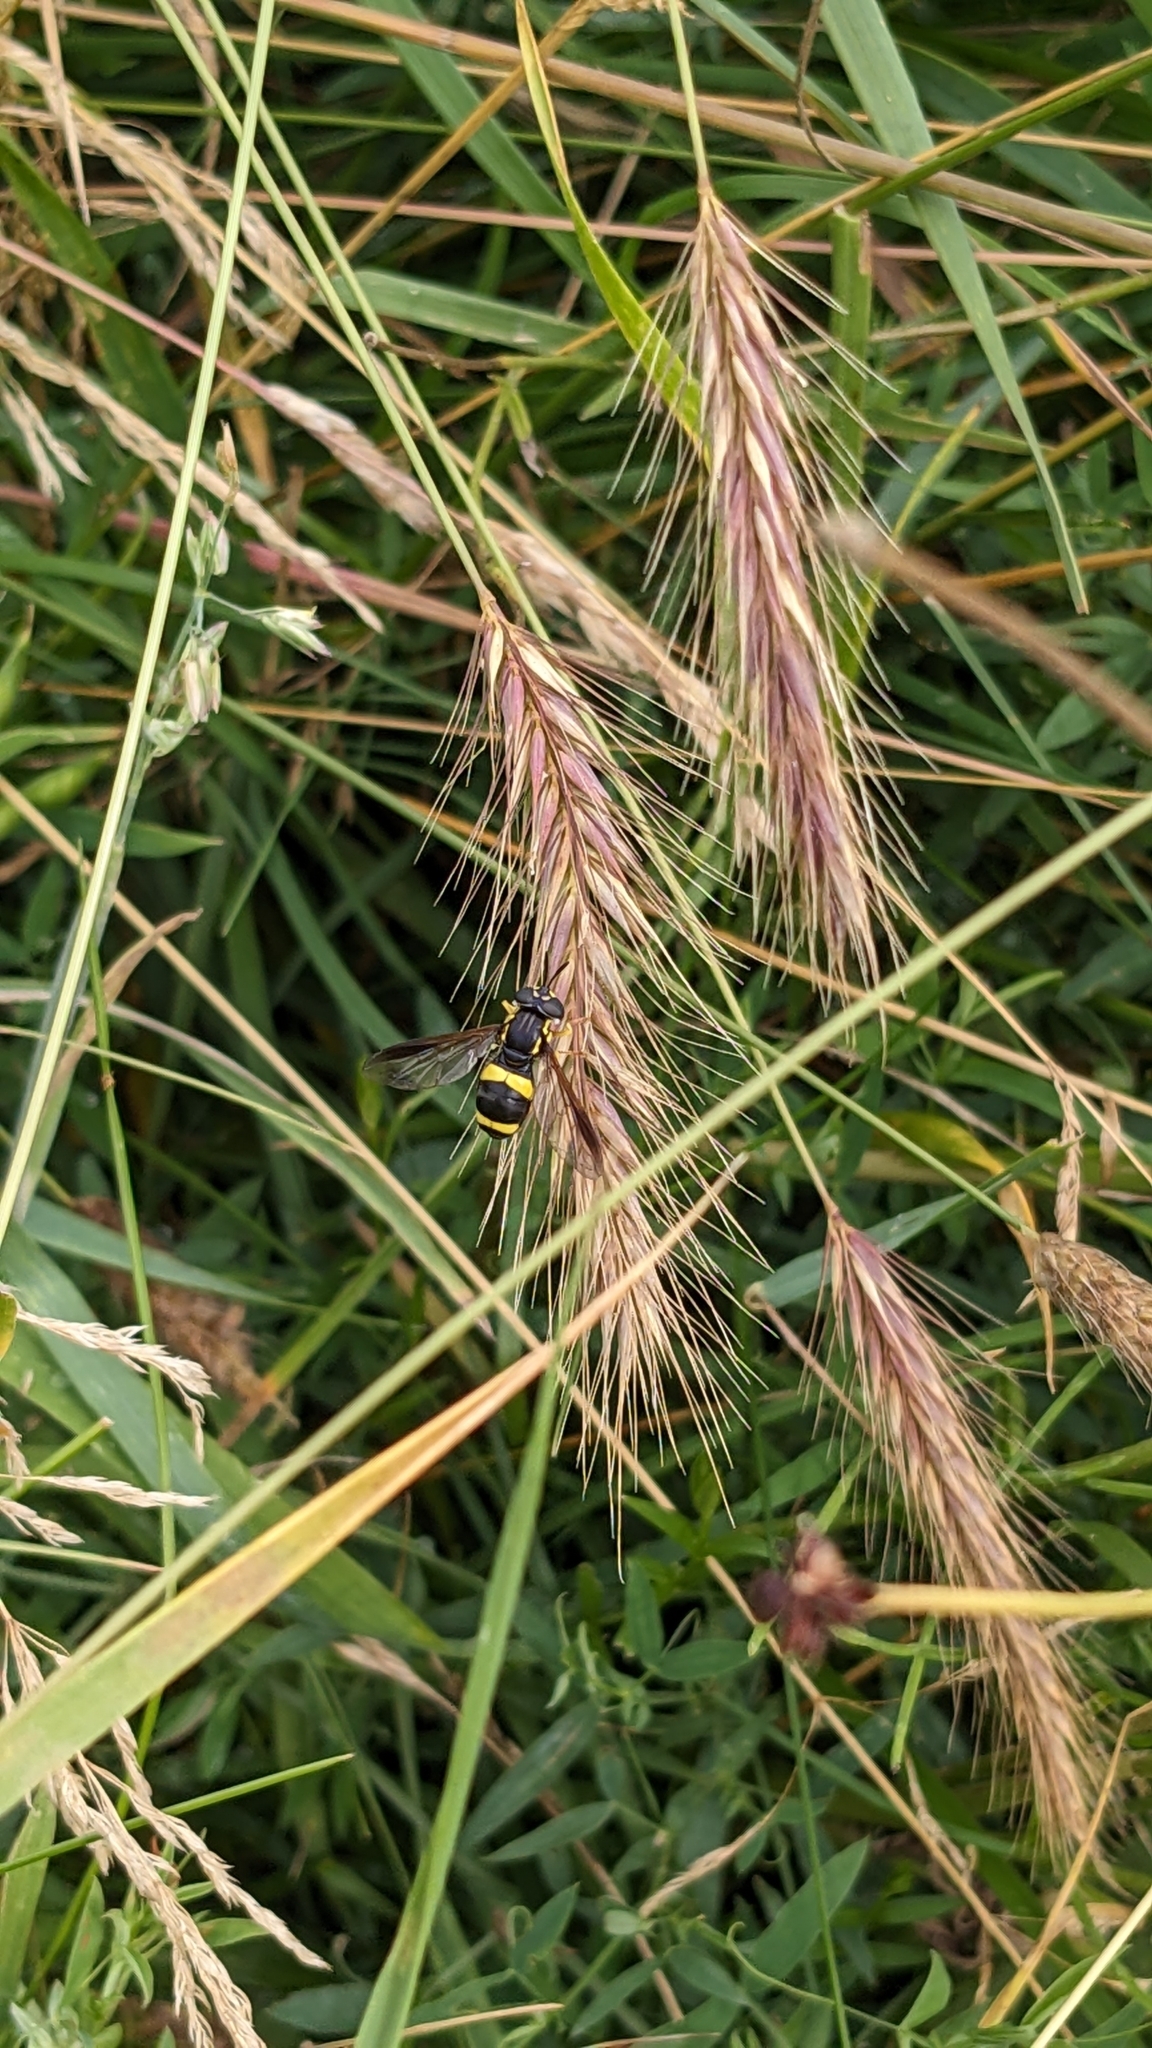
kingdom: Animalia
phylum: Arthropoda
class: Insecta
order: Diptera
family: Syrphidae
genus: Chrysotoxum
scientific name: Chrysotoxum bicincta
